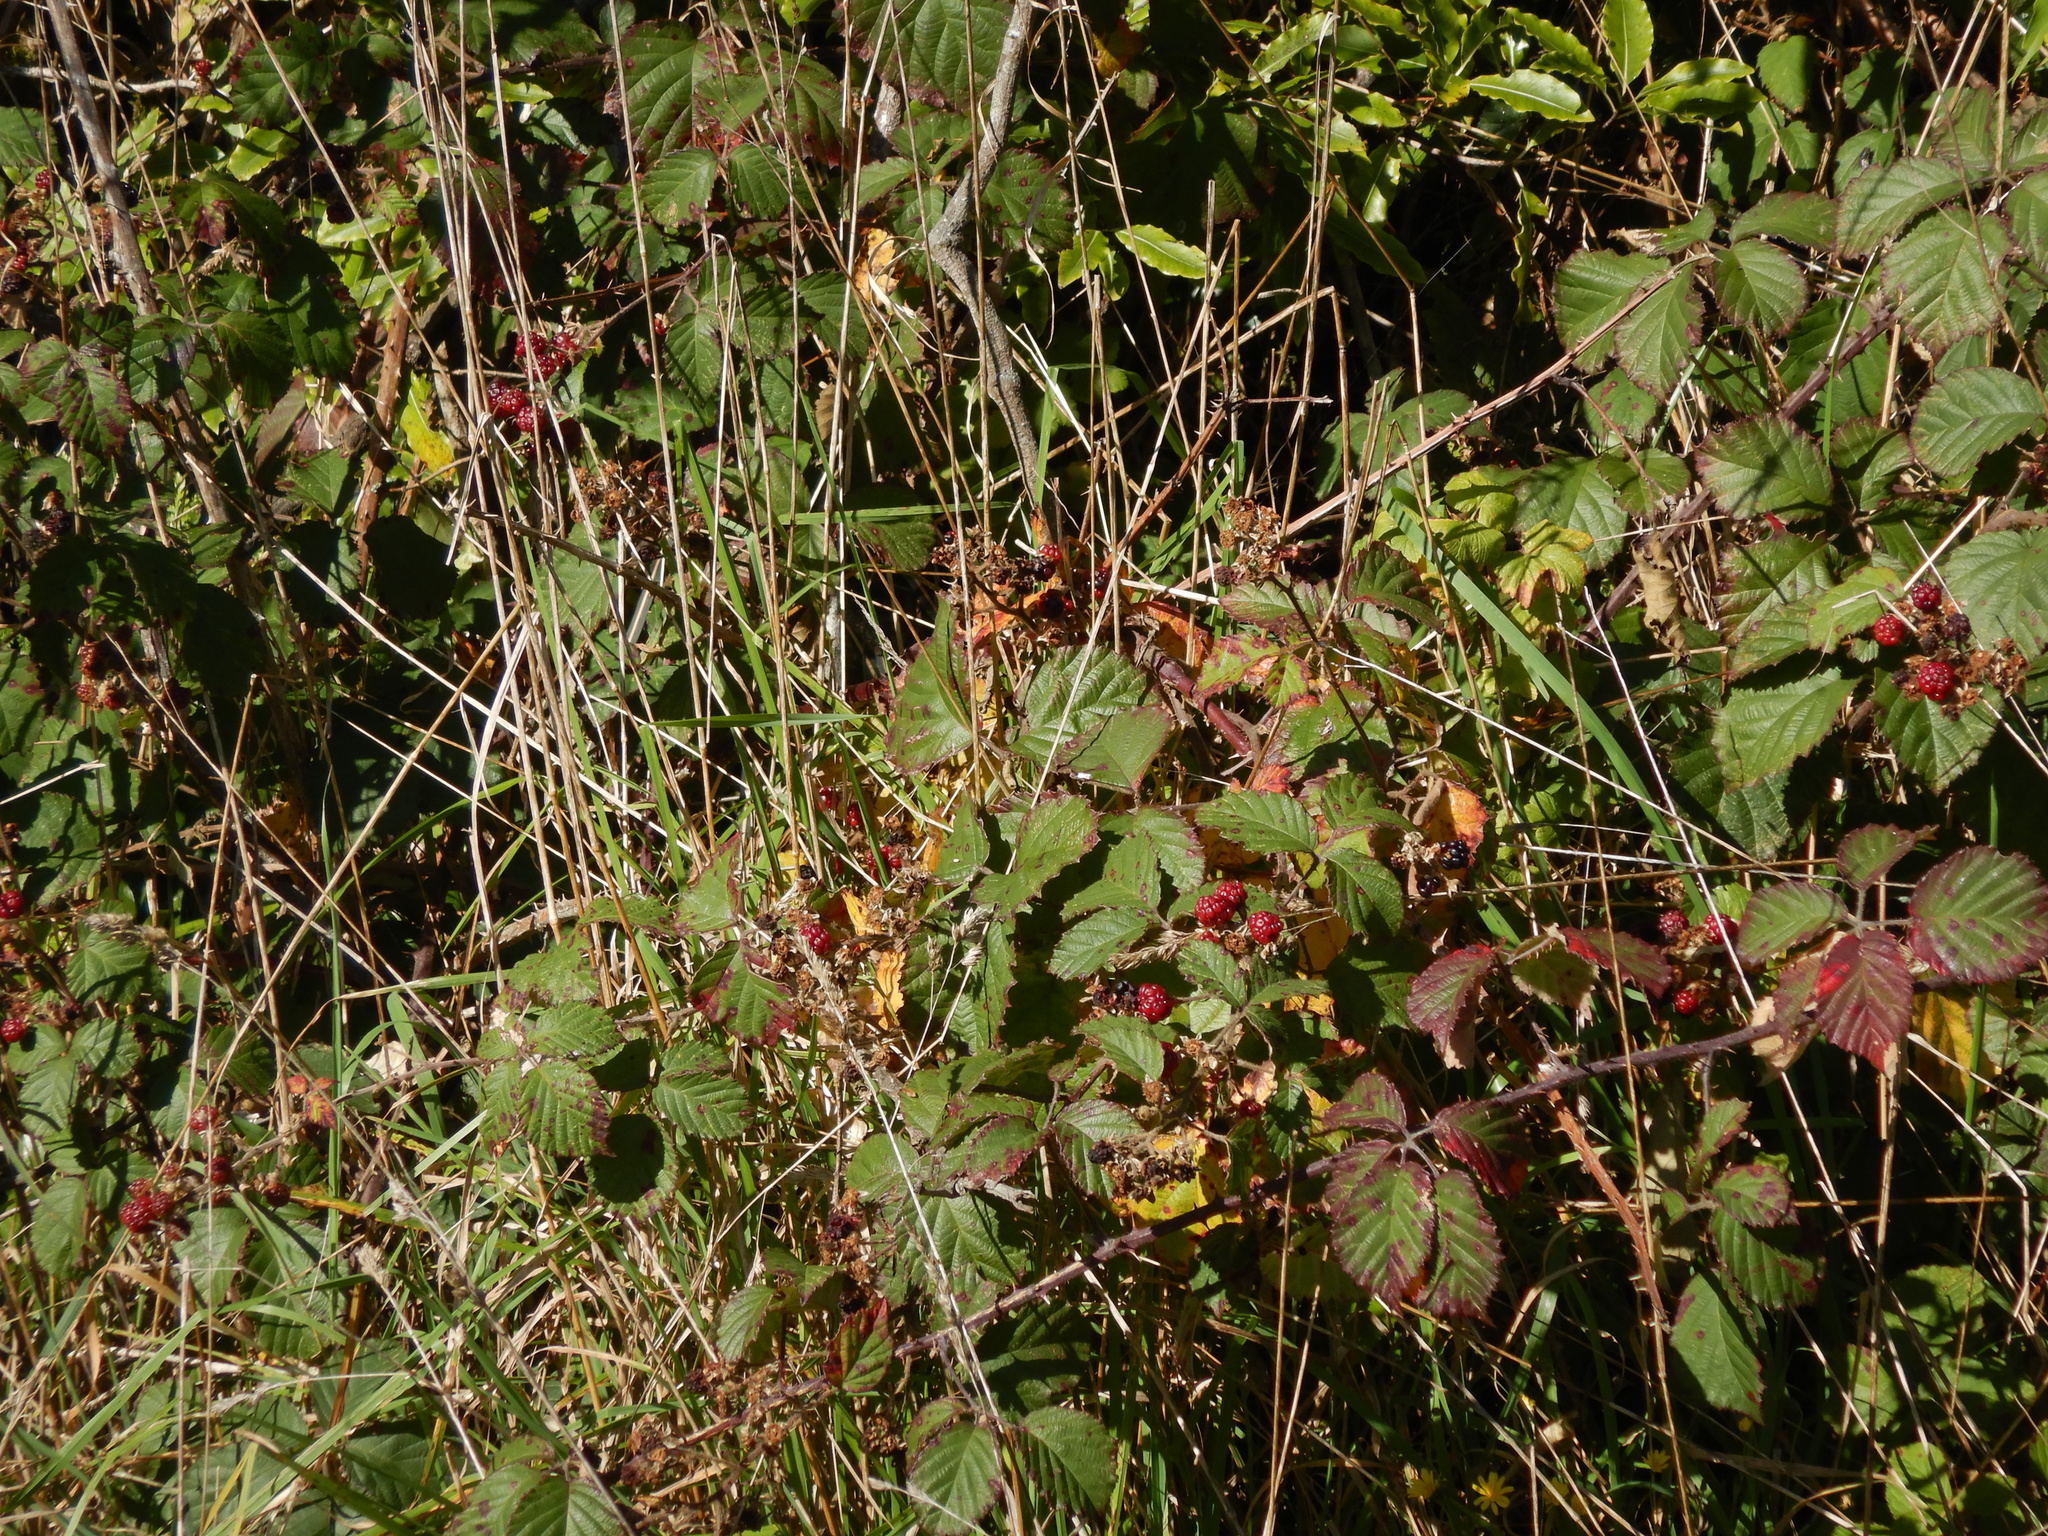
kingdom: Plantae
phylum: Tracheophyta
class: Magnoliopsida
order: Rosales
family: Rosaceae
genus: Rubus
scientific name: Rubus fruticosus
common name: Blackberry, bramble
